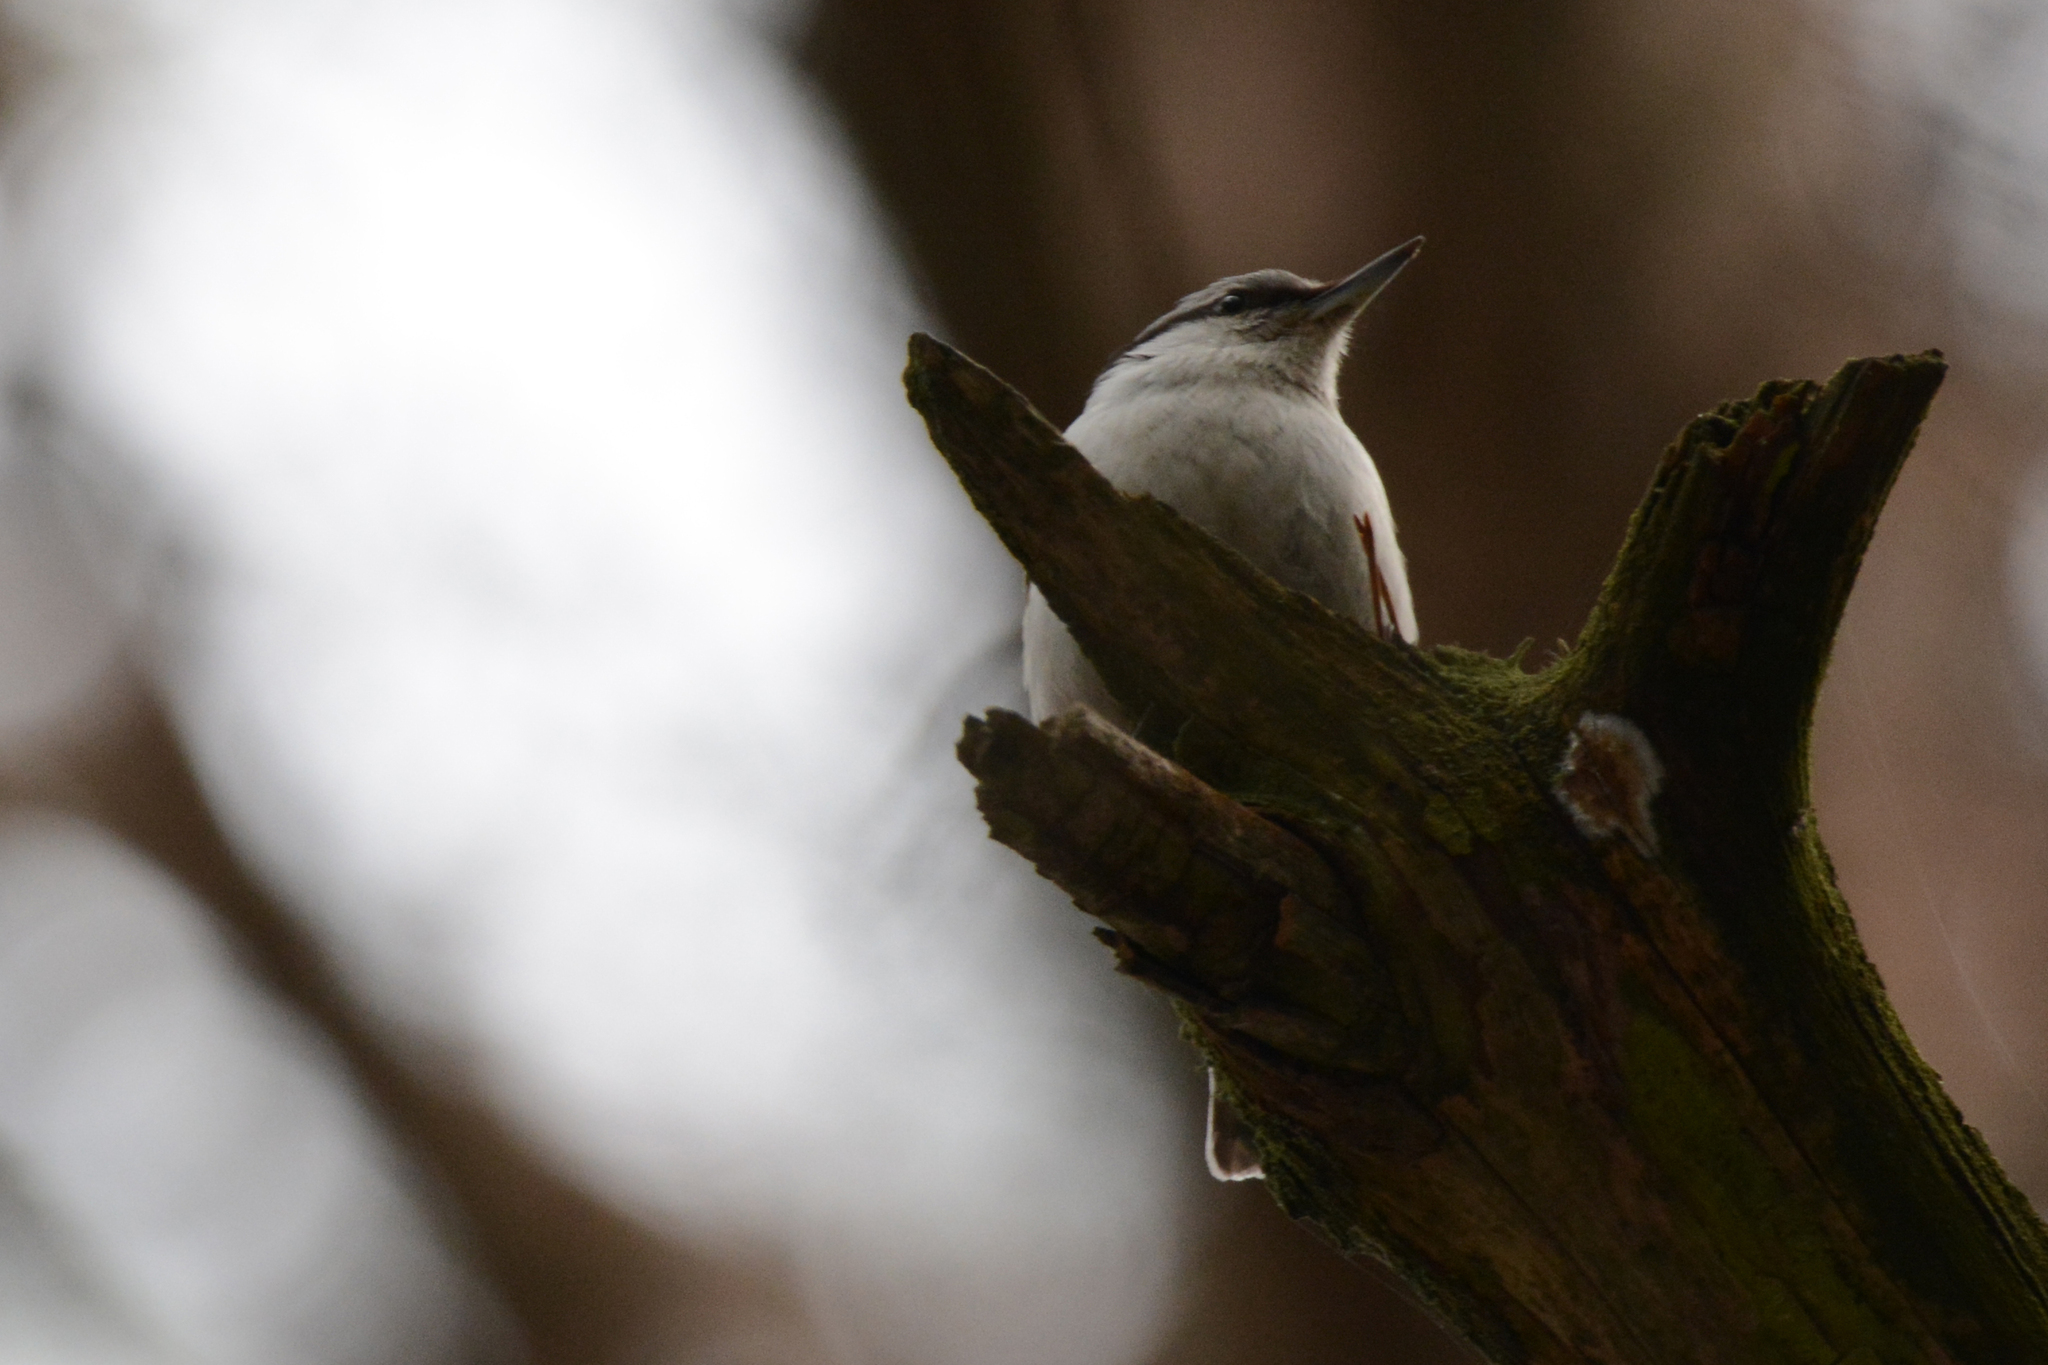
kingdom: Animalia
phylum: Chordata
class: Aves
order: Passeriformes
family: Sittidae
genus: Sitta
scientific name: Sitta europaea
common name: Eurasian nuthatch
